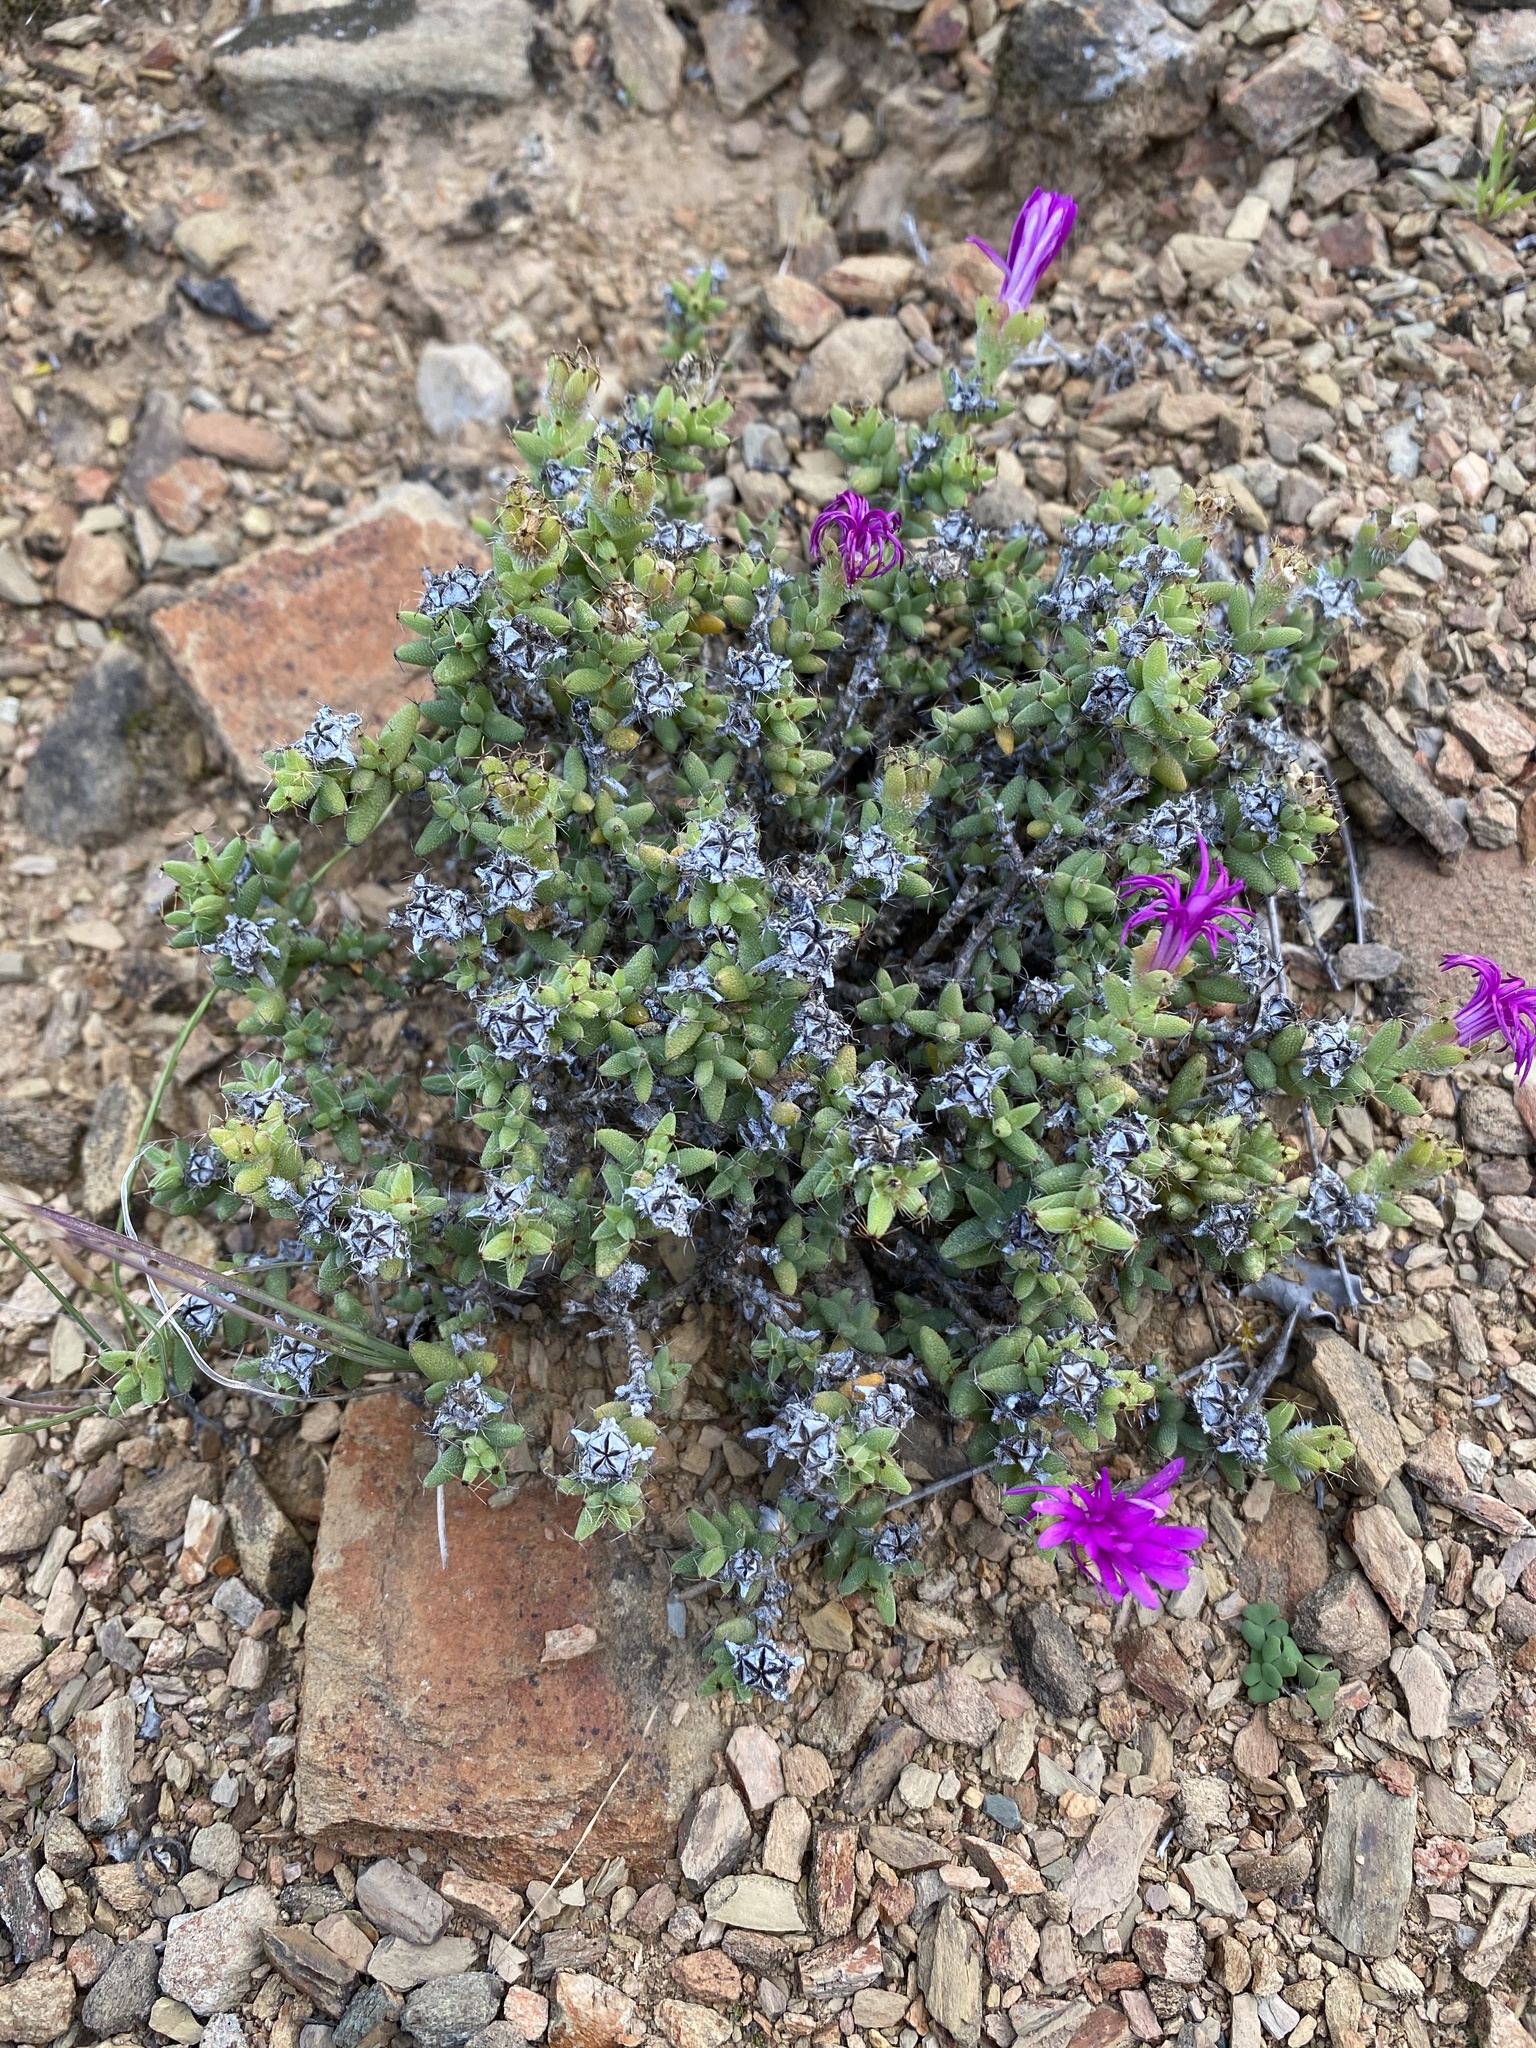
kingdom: Plantae
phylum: Tracheophyta
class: Magnoliopsida
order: Caryophyllales
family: Aizoaceae
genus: Trichodiadema
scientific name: Trichodiadema hallii
